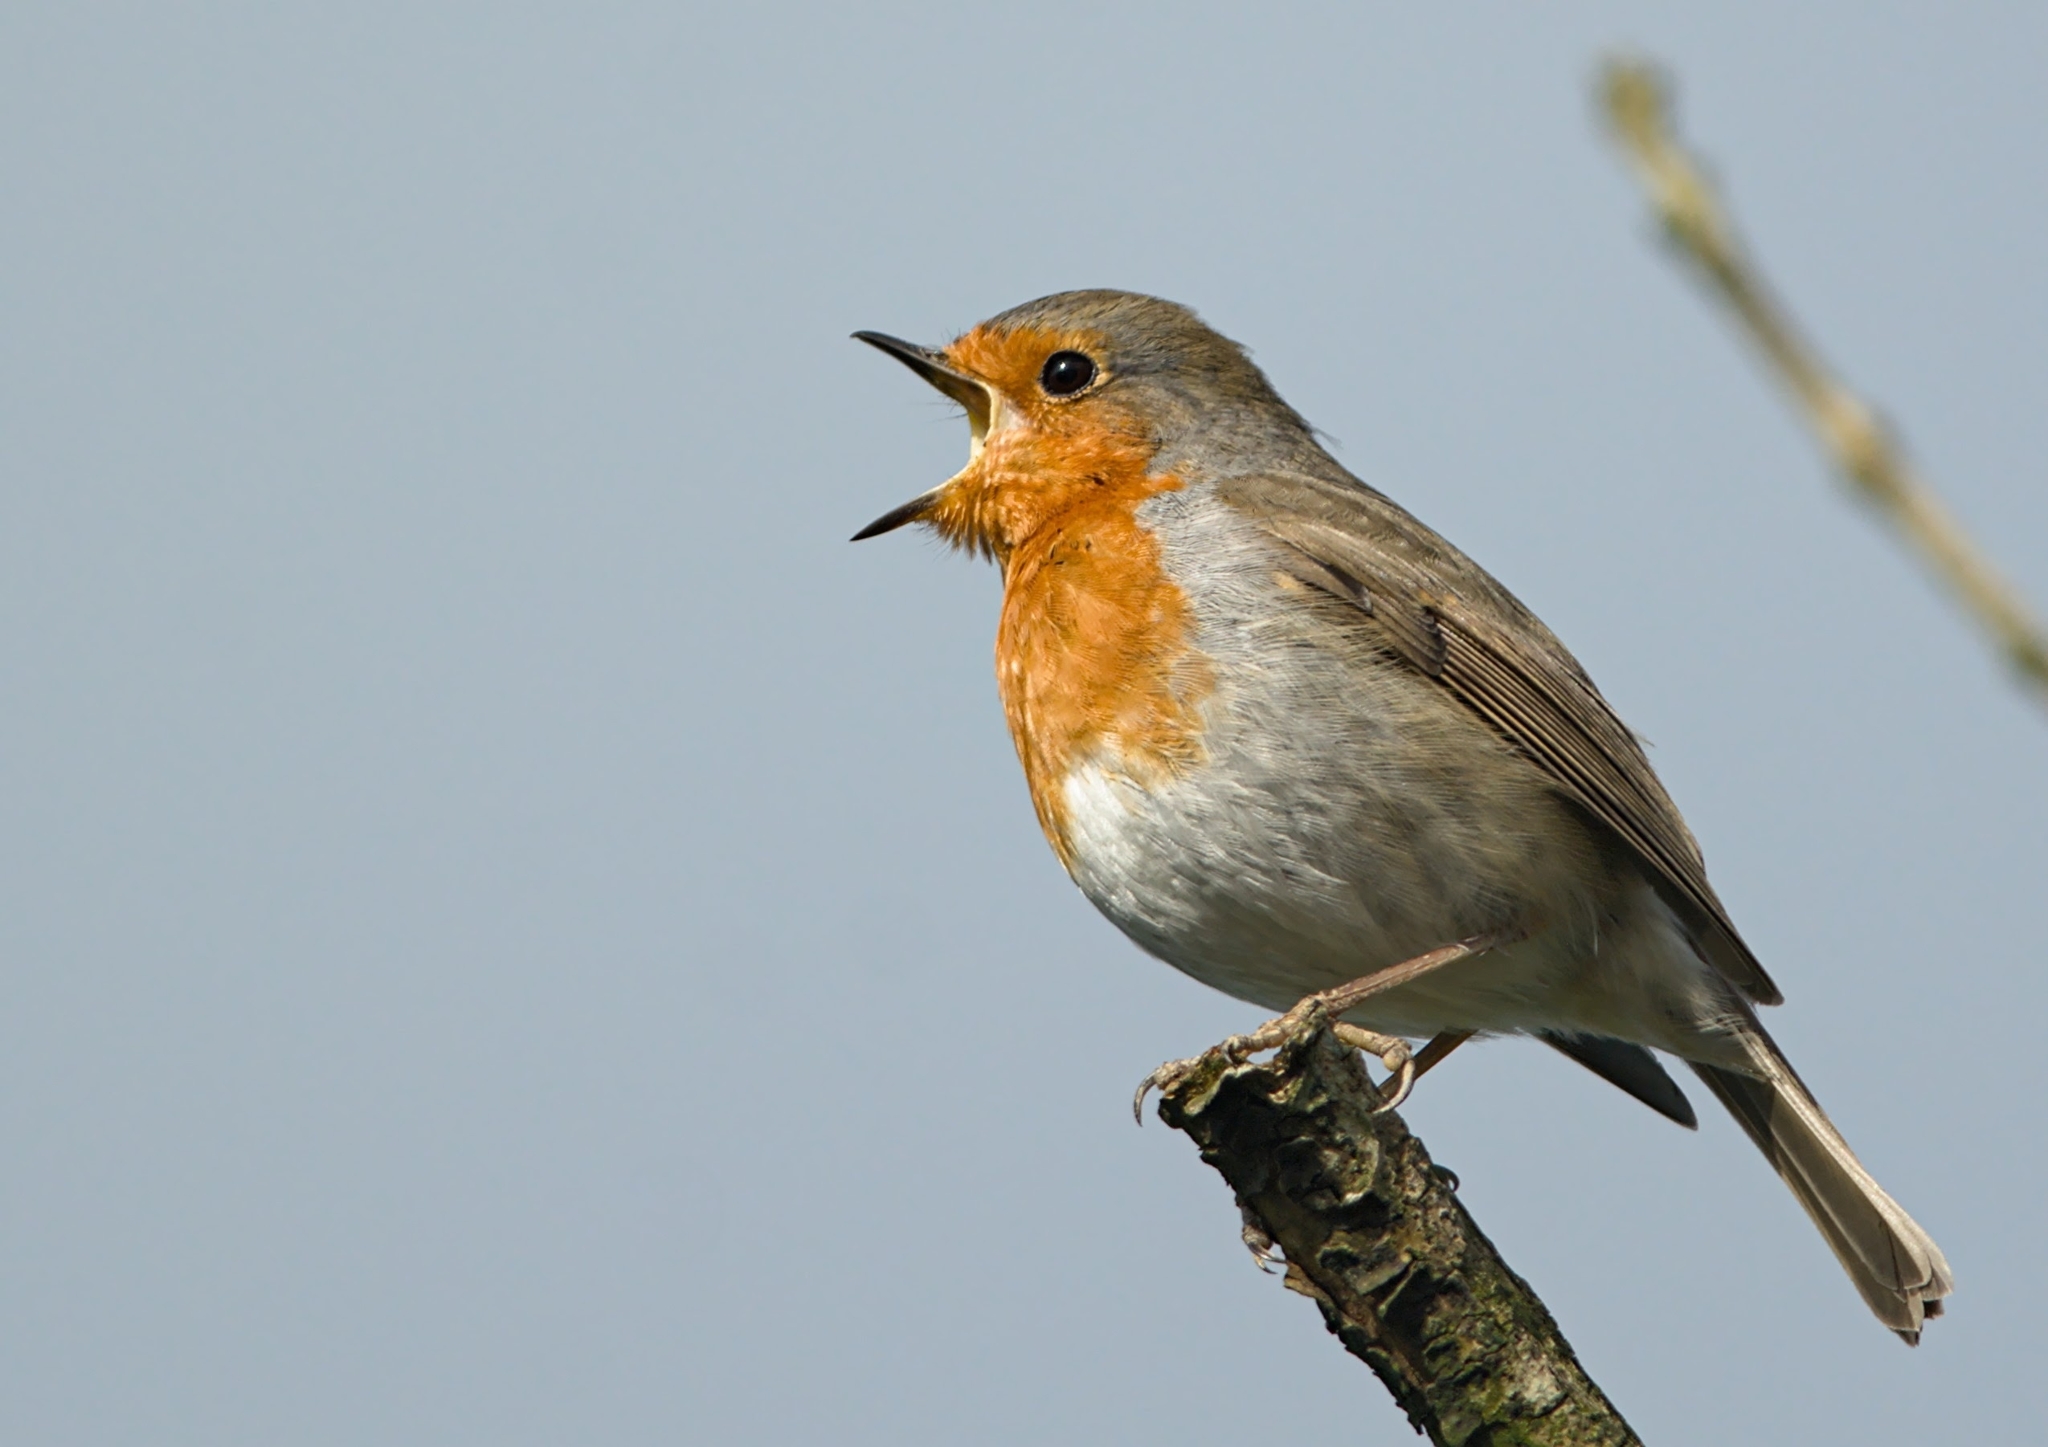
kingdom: Animalia
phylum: Chordata
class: Aves
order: Passeriformes
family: Muscicapidae
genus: Erithacus
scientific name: Erithacus rubecula
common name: European robin
